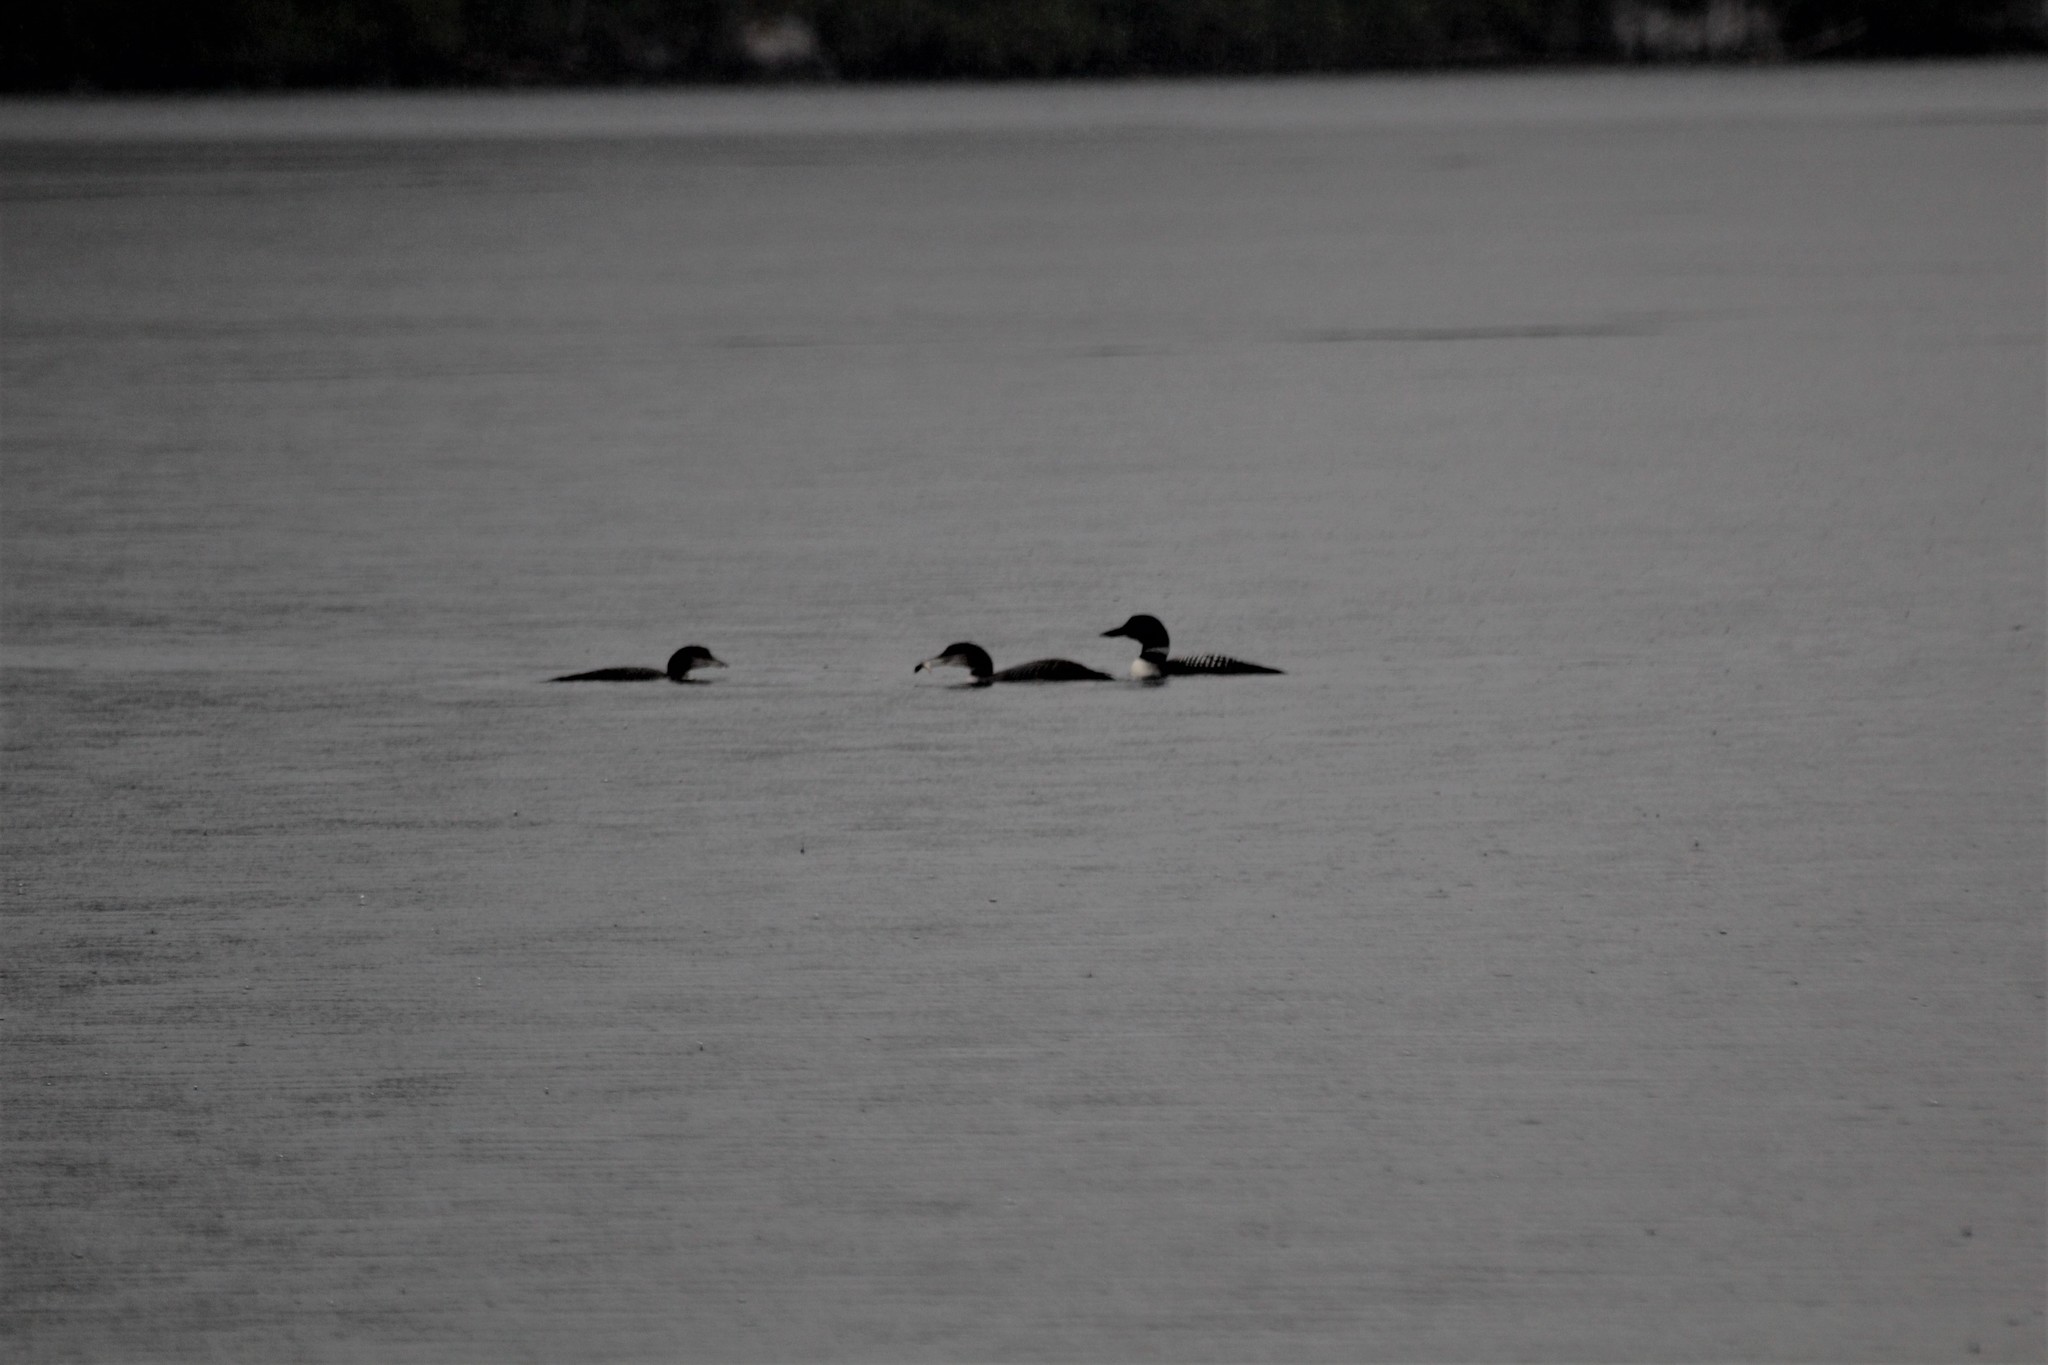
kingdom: Animalia
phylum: Chordata
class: Aves
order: Gaviiformes
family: Gaviidae
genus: Gavia
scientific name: Gavia immer
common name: Common loon
